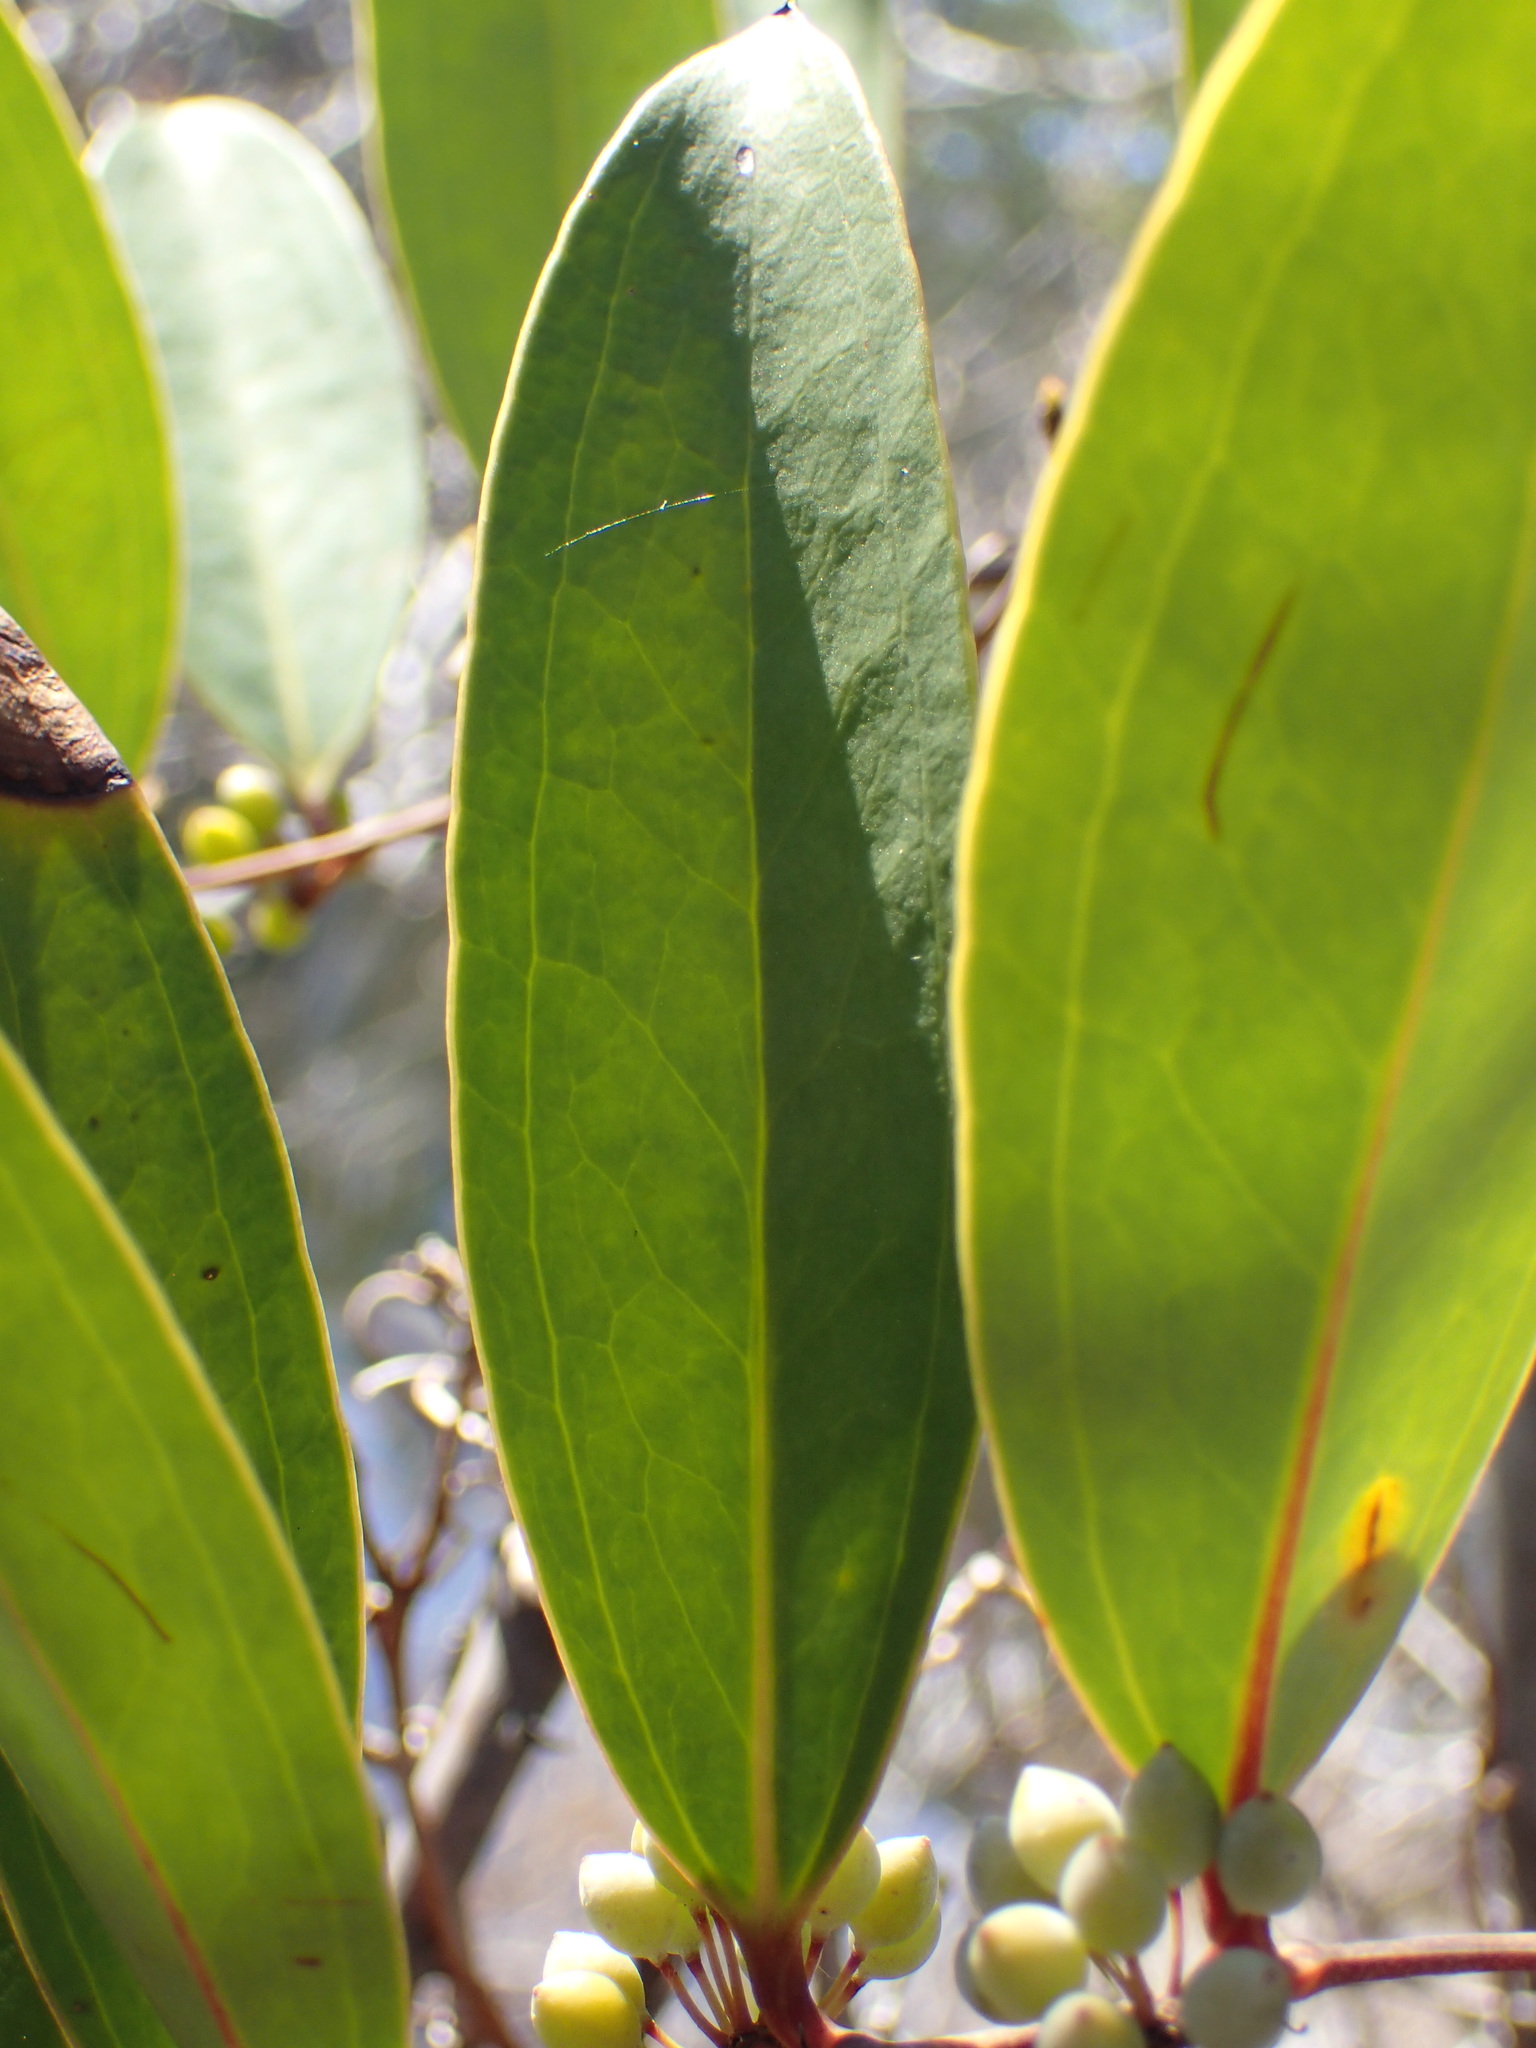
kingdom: Plantae
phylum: Tracheophyta
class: Liliopsida
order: Liliales
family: Smilacaceae
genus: Smilax
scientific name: Smilax laurifolia
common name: Bamboovine
